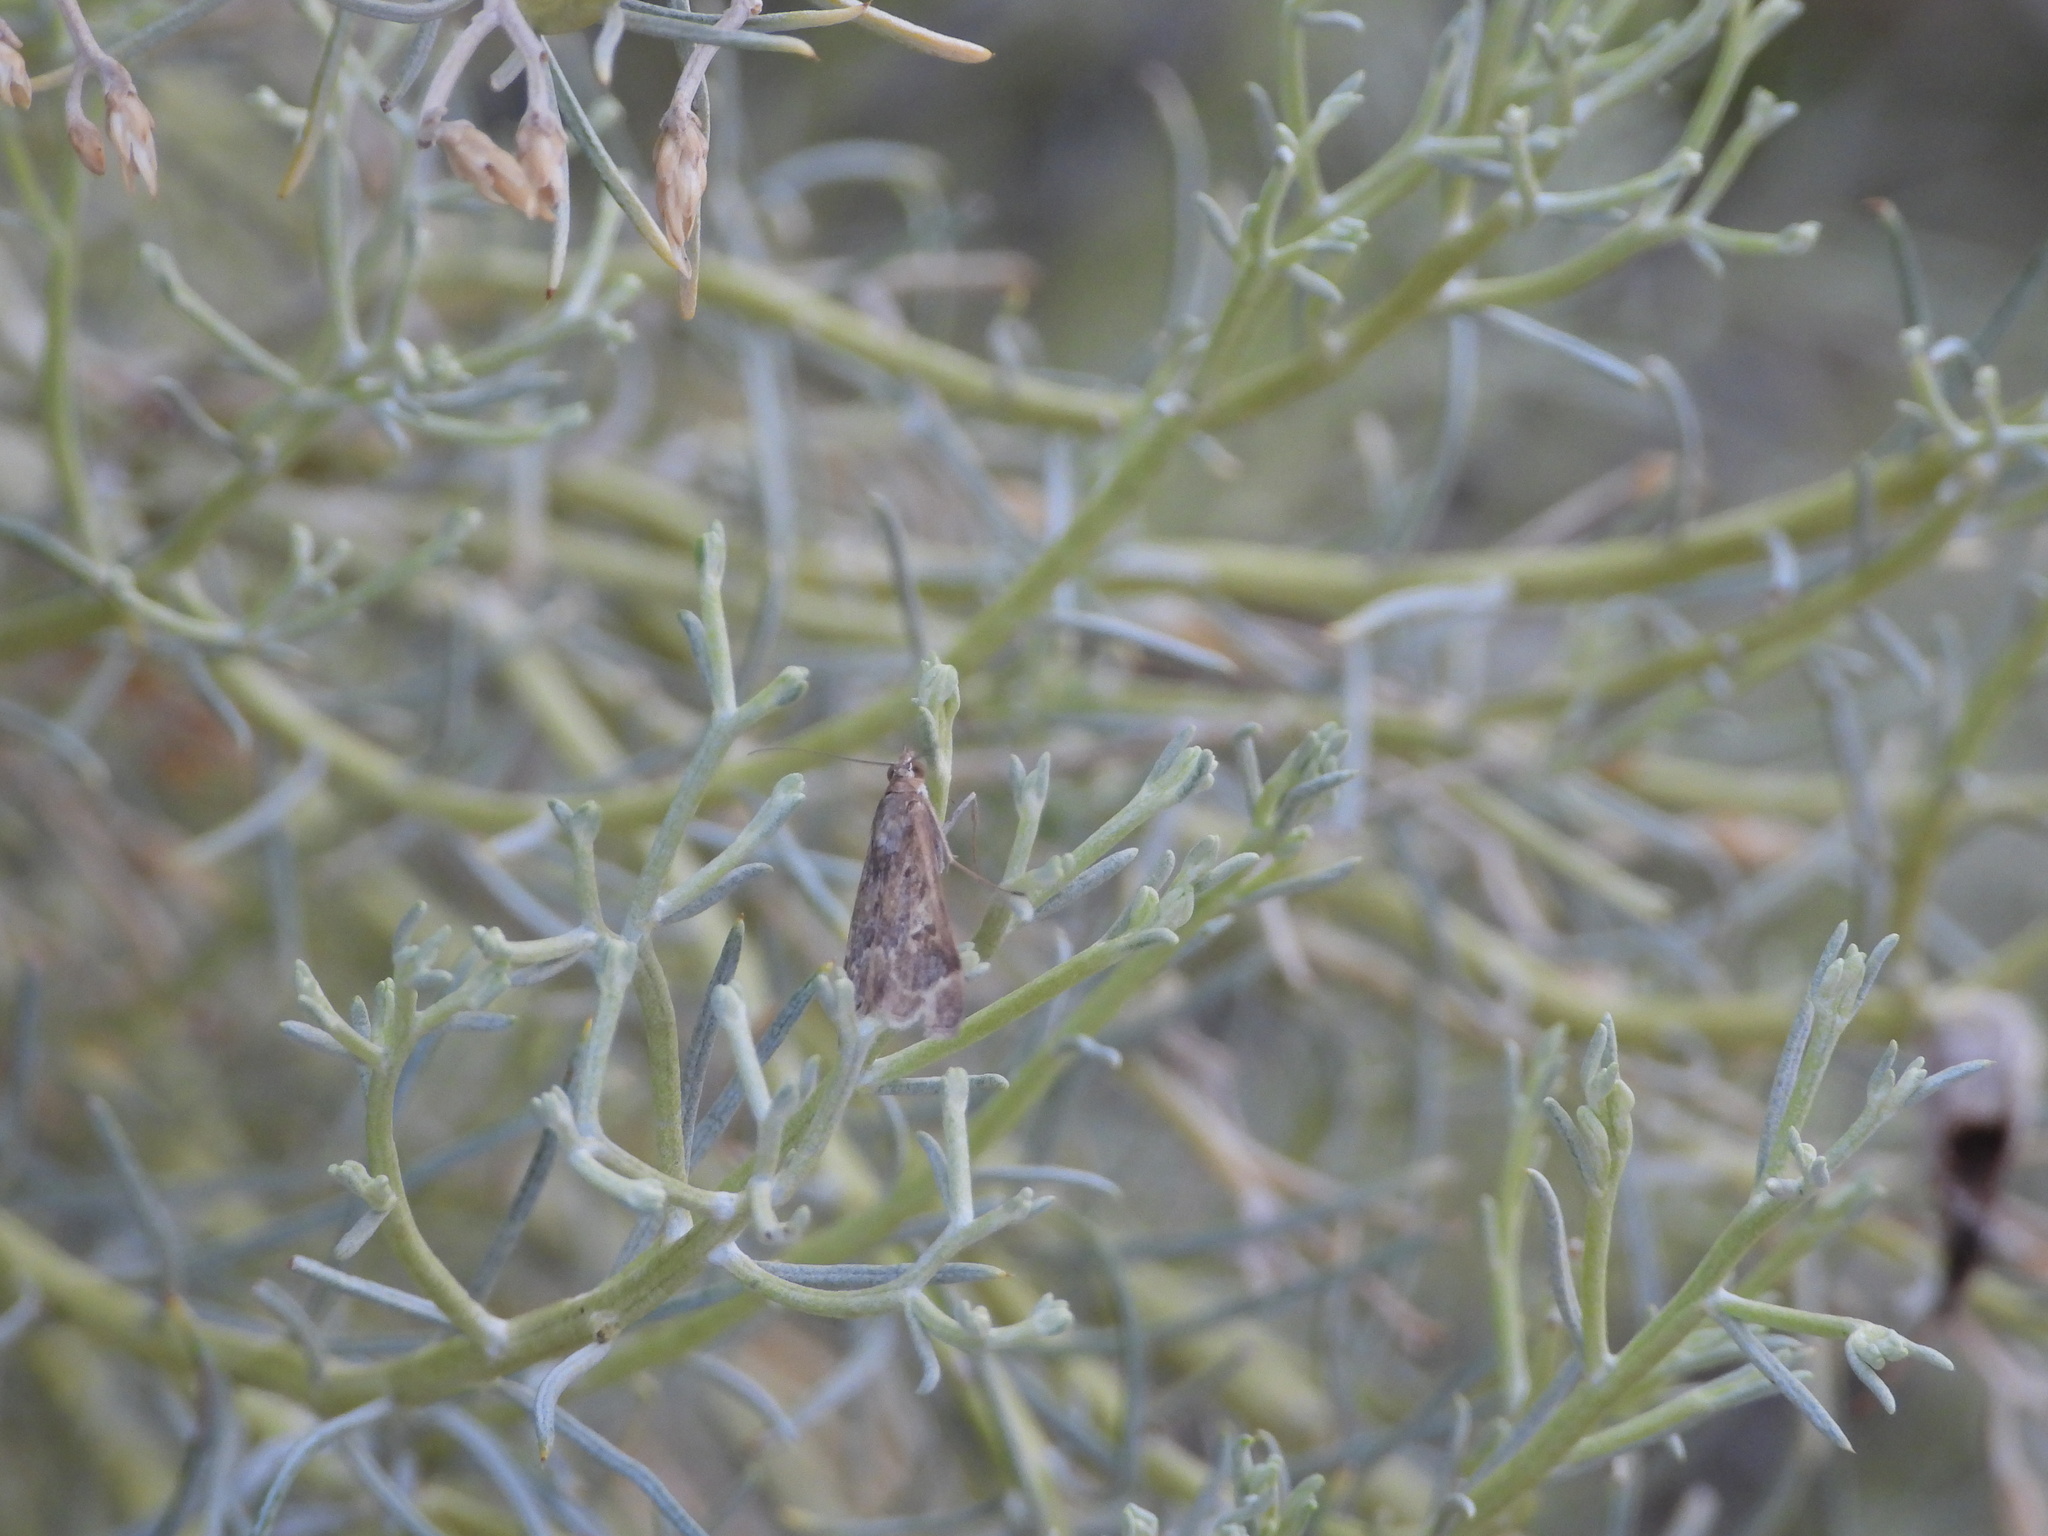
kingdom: Animalia
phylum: Arthropoda
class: Insecta
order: Lepidoptera
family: Crambidae
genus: Loxostege
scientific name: Loxostege allectalis
